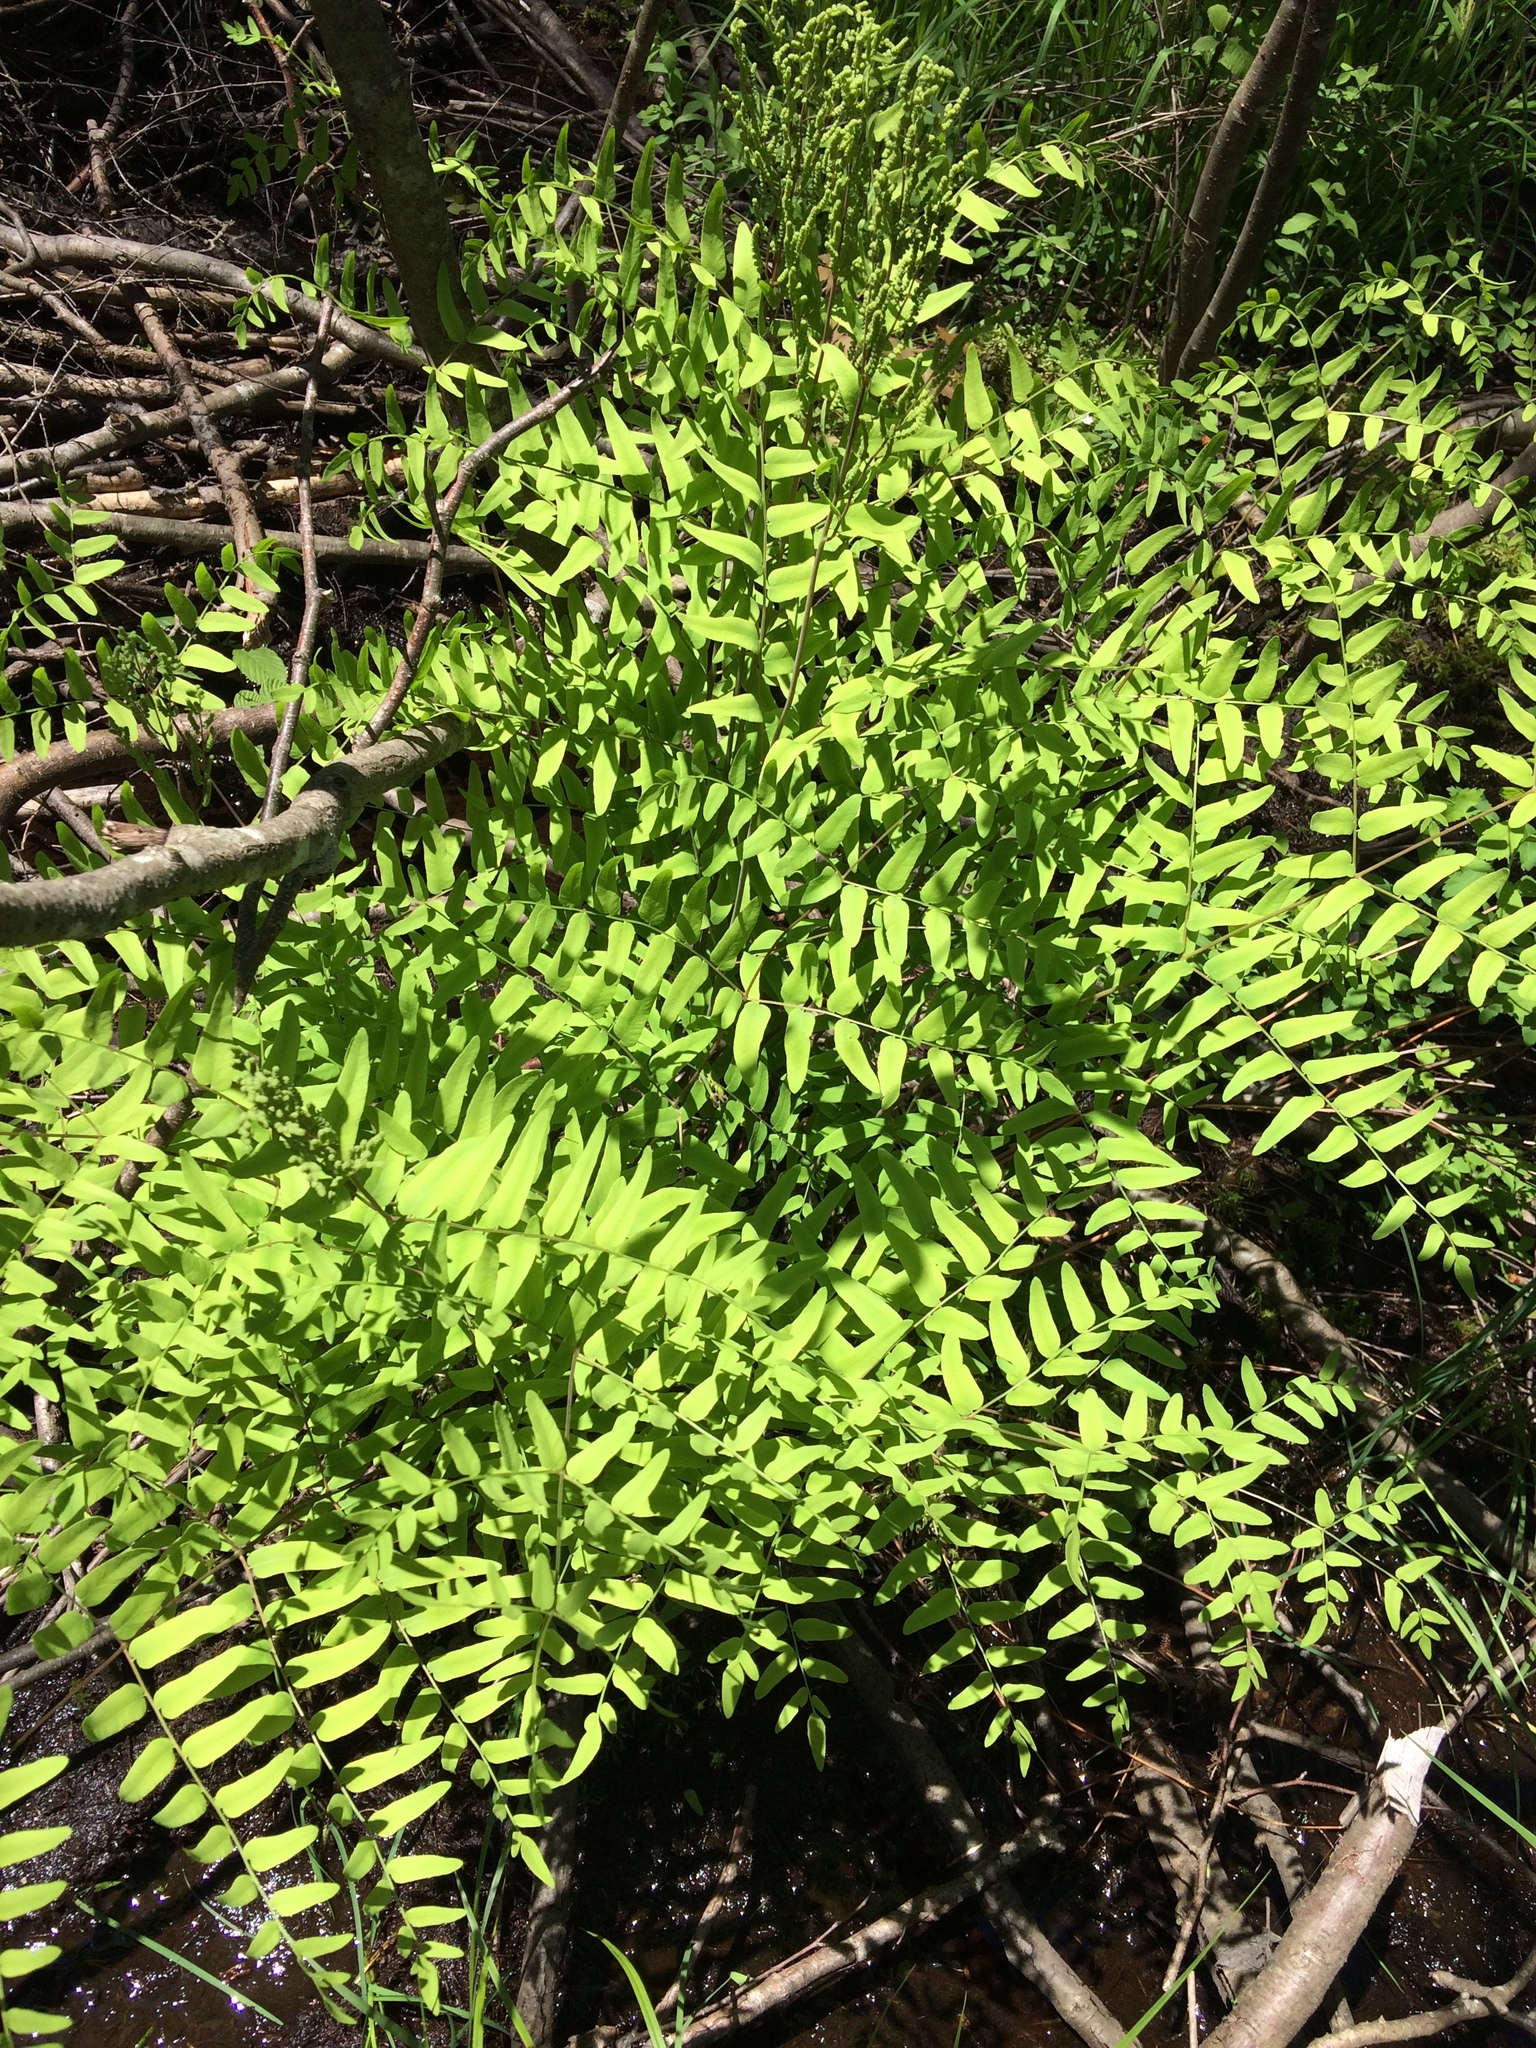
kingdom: Plantae
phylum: Tracheophyta
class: Polypodiopsida
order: Osmundales
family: Osmundaceae
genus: Osmunda
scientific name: Osmunda spectabilis
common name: American royal fern
